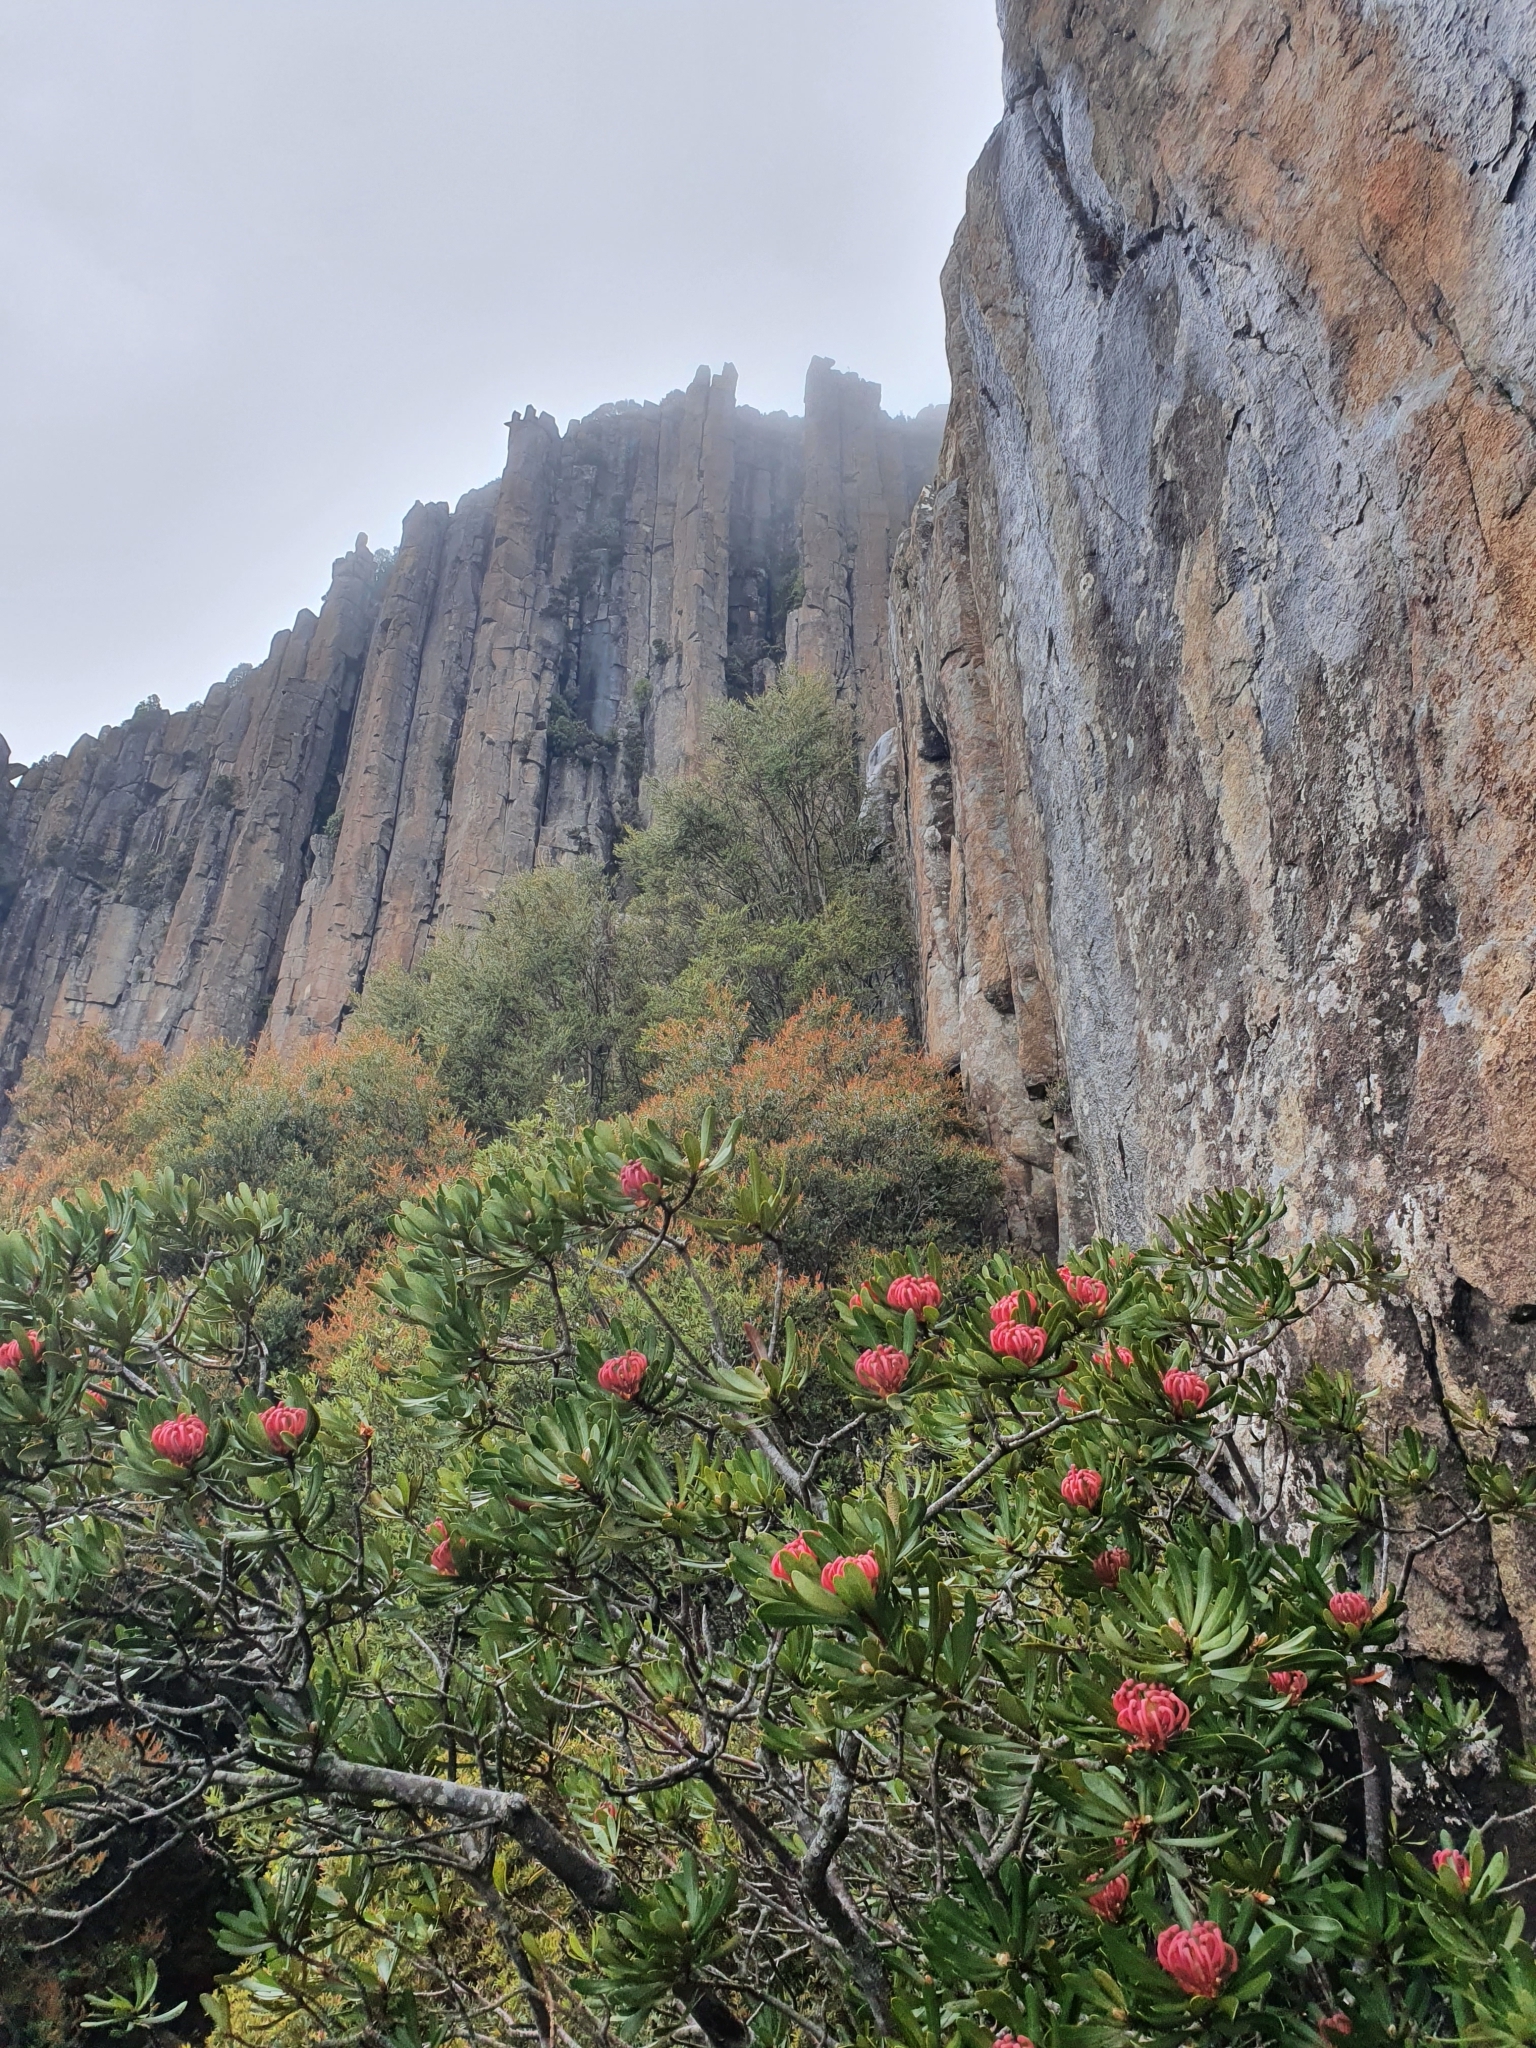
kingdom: Plantae
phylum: Tracheophyta
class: Magnoliopsida
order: Proteales
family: Proteaceae
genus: Telopea
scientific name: Telopea truncata
